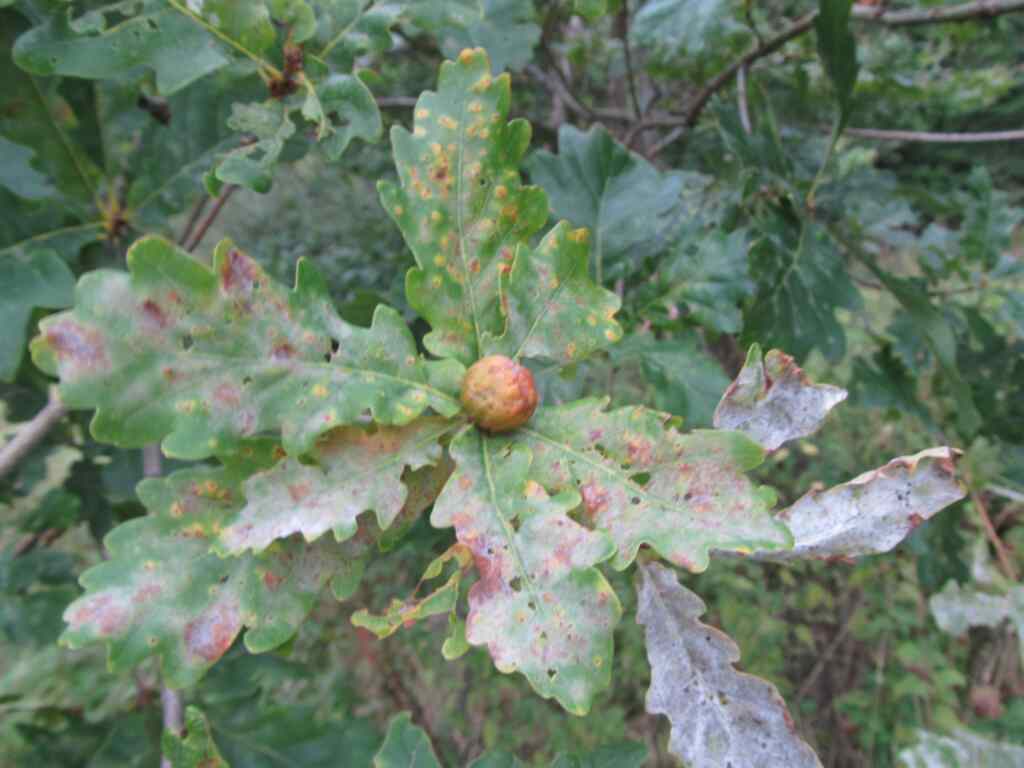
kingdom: Animalia
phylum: Arthropoda
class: Insecta
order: Hymenoptera
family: Cynipidae
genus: Andricus
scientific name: Andricus kollari
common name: Marble gall
